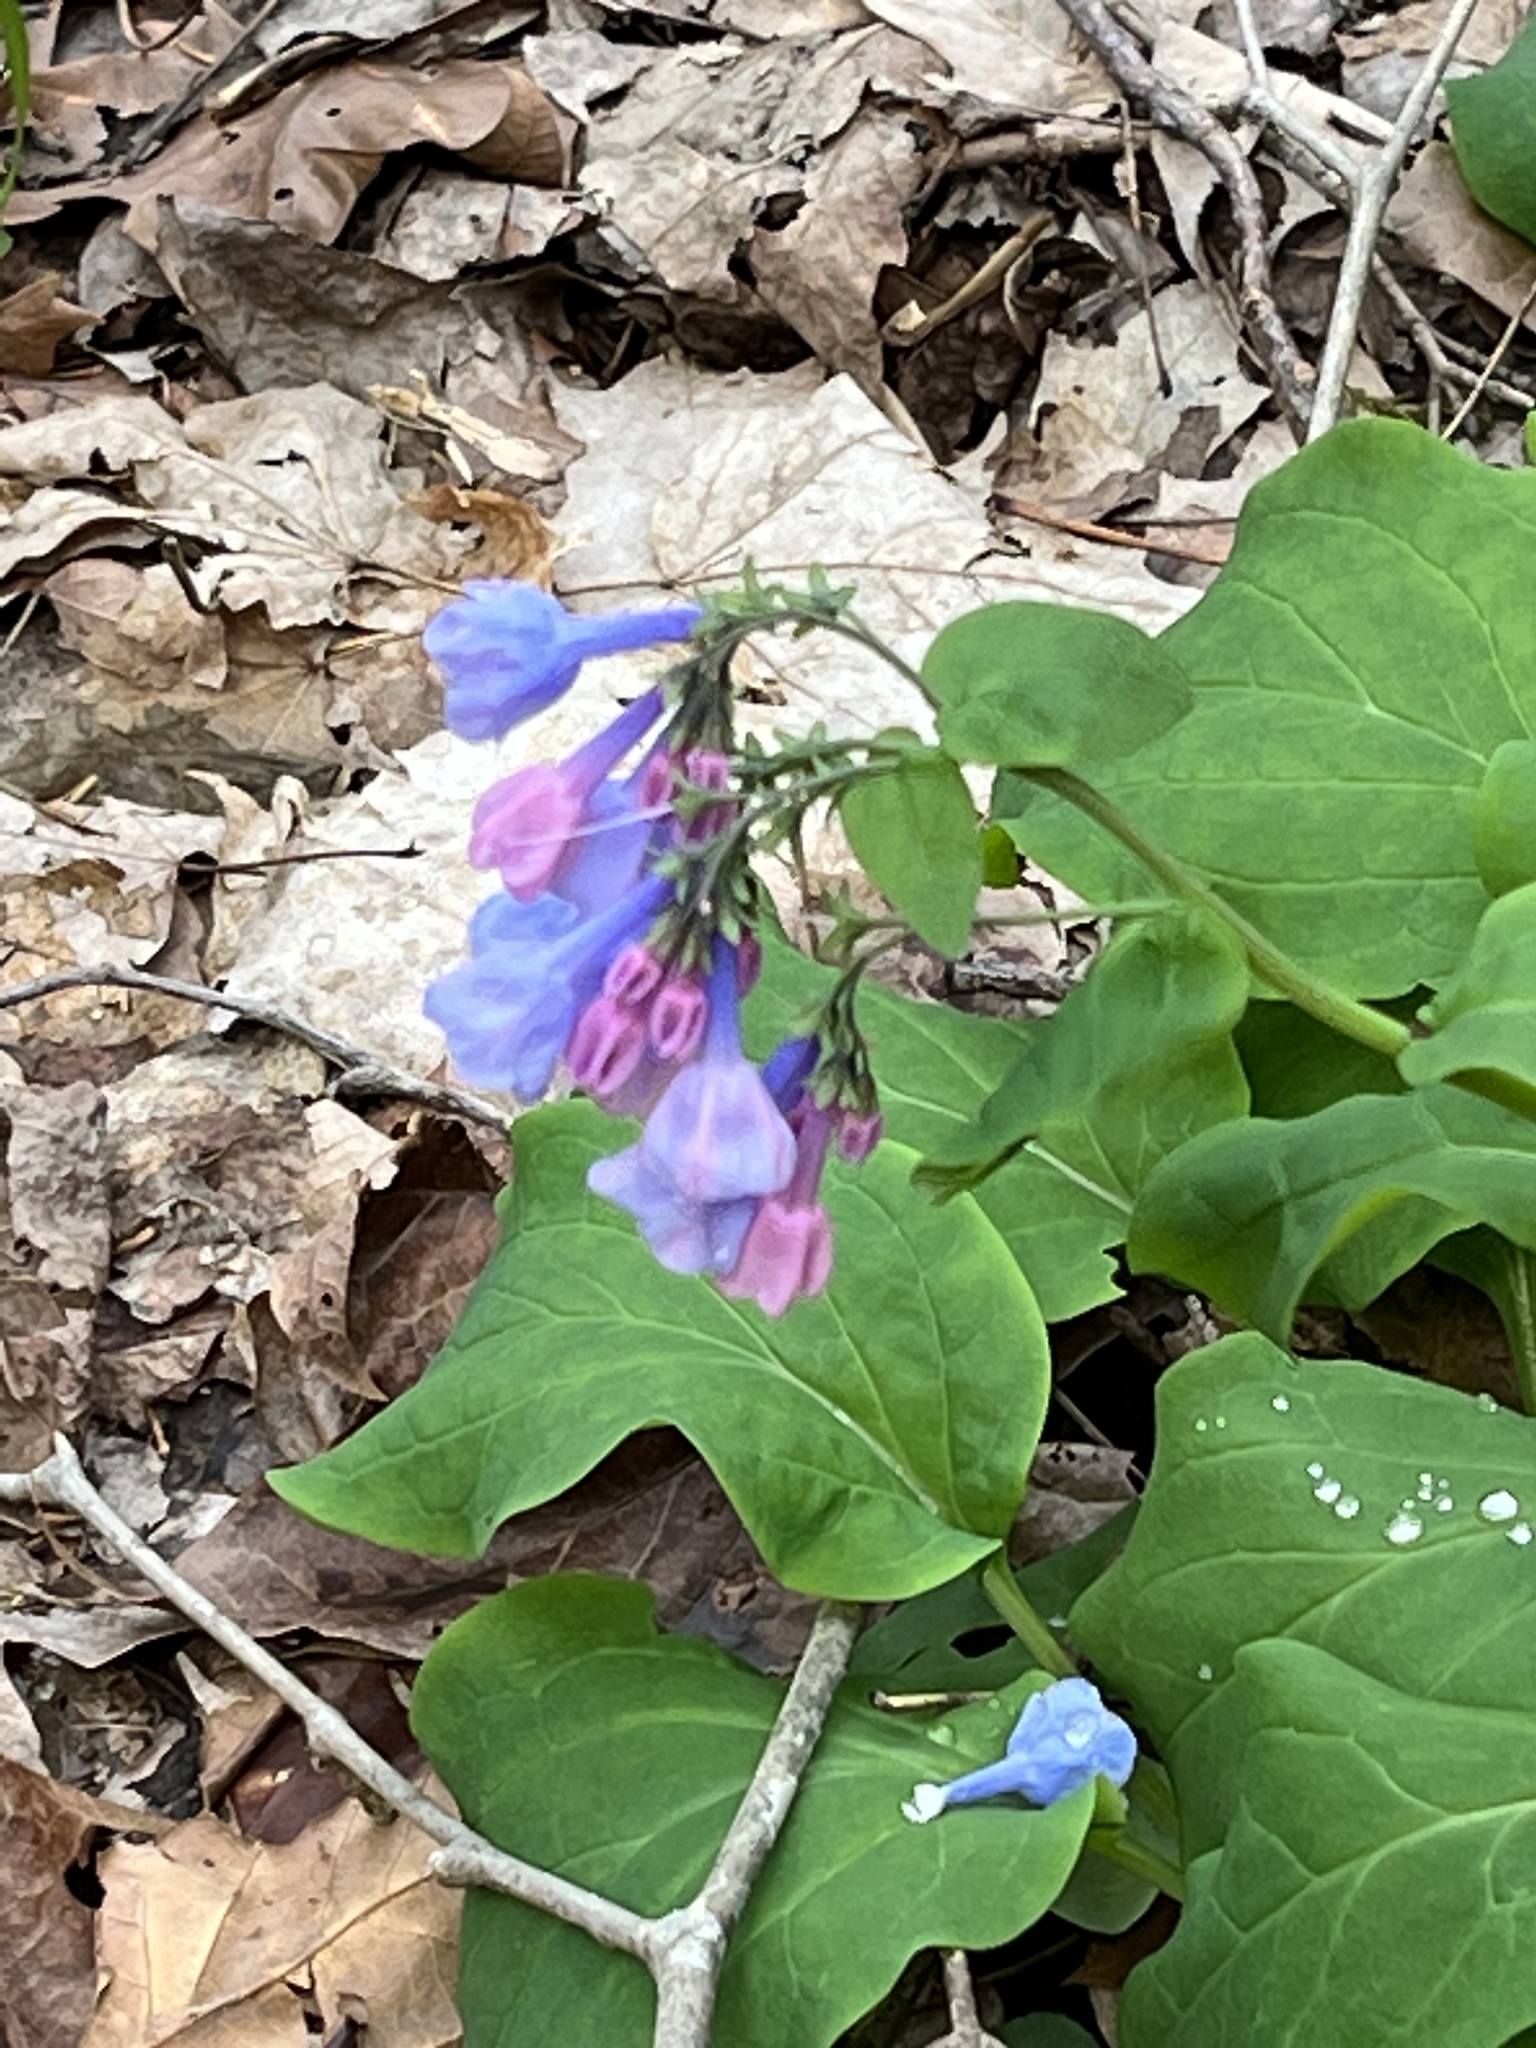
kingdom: Plantae
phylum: Tracheophyta
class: Magnoliopsida
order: Boraginales
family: Boraginaceae
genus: Mertensia
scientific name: Mertensia virginica
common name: Virginia bluebells
